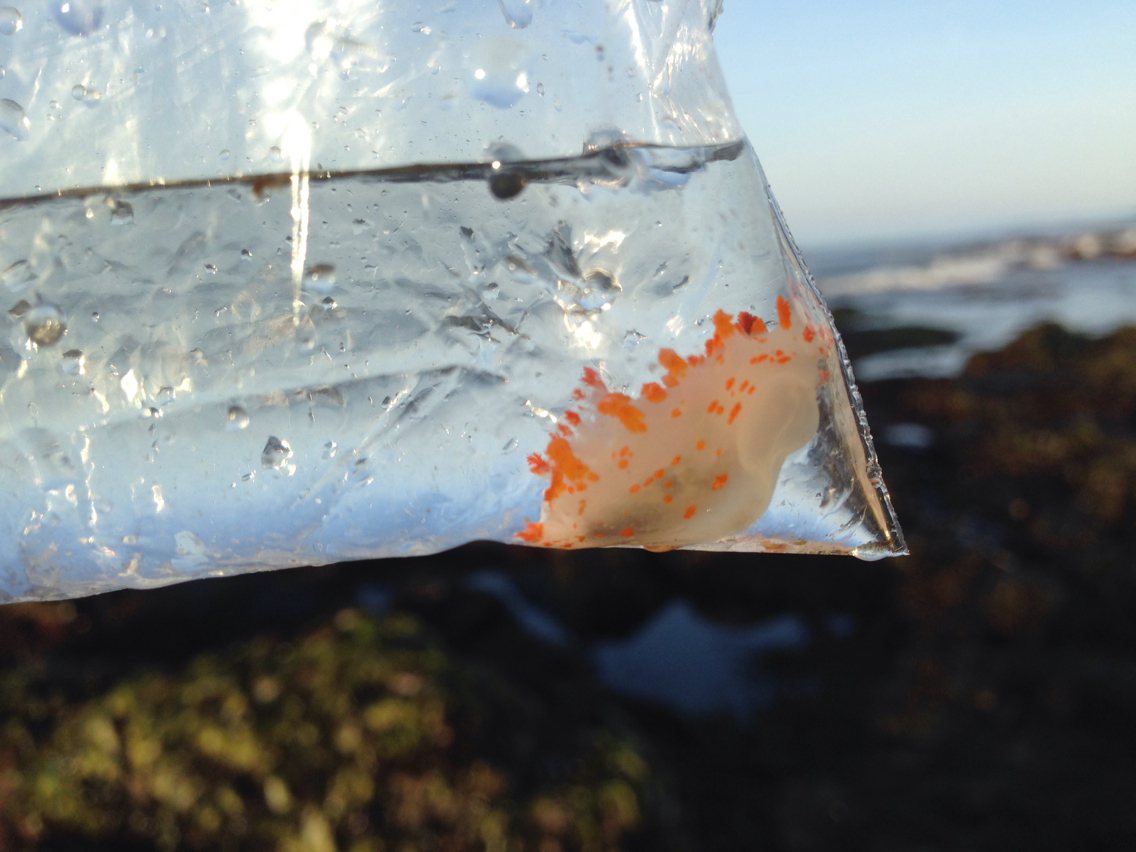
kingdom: Animalia
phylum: Mollusca
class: Gastropoda
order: Nudibranchia
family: Polyceridae
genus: Triopha
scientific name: Triopha catalinae
